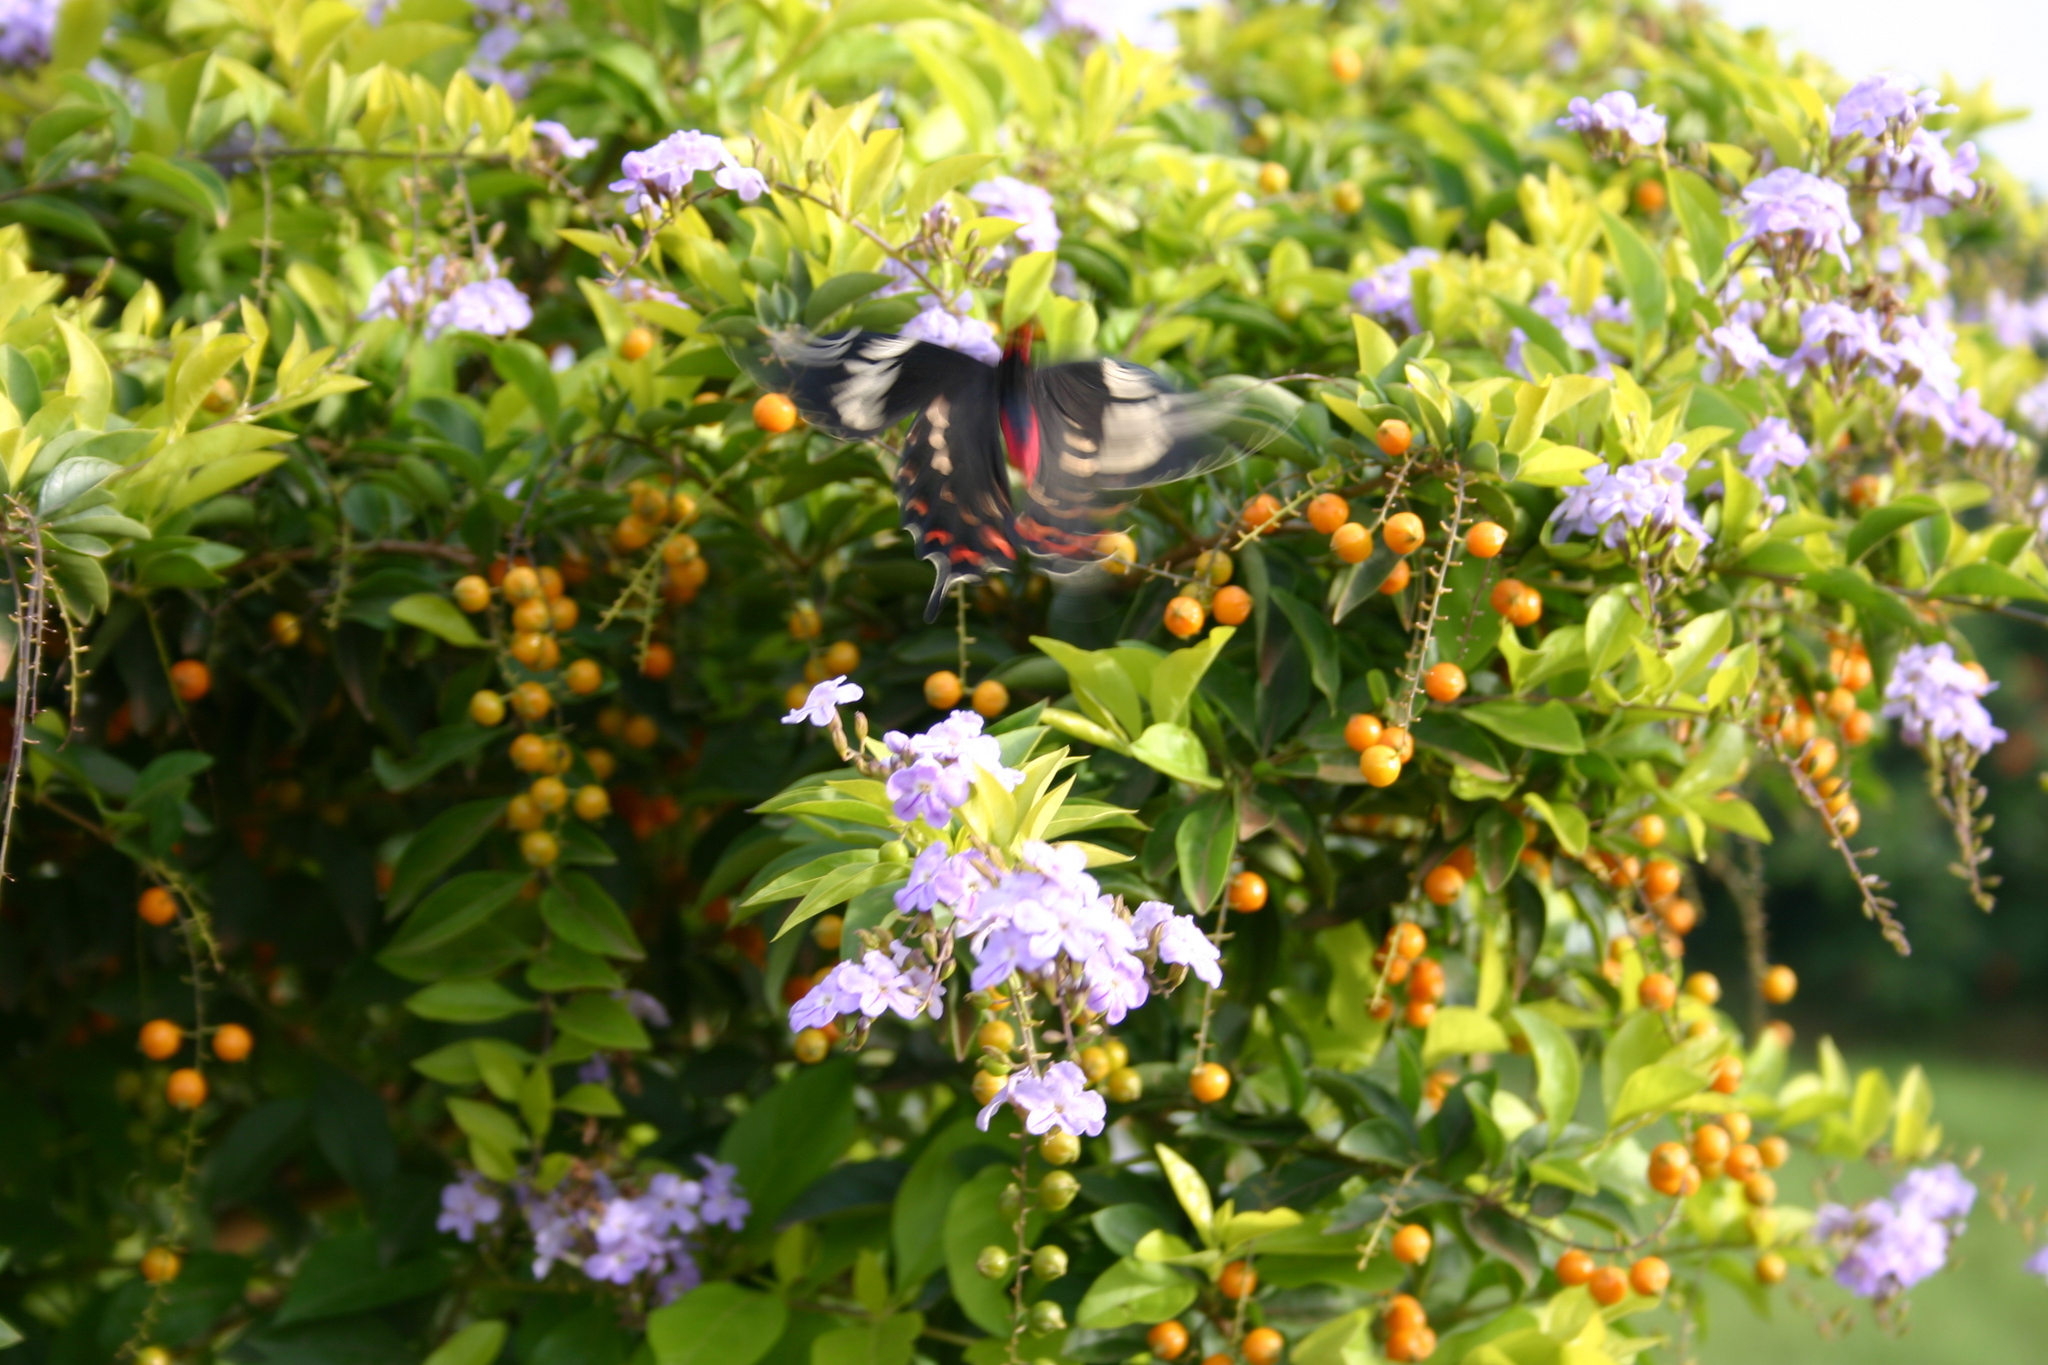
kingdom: Animalia
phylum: Arthropoda
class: Insecta
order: Lepidoptera
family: Papilionidae
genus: Pachliopta
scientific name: Pachliopta hector
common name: Crimson rose
